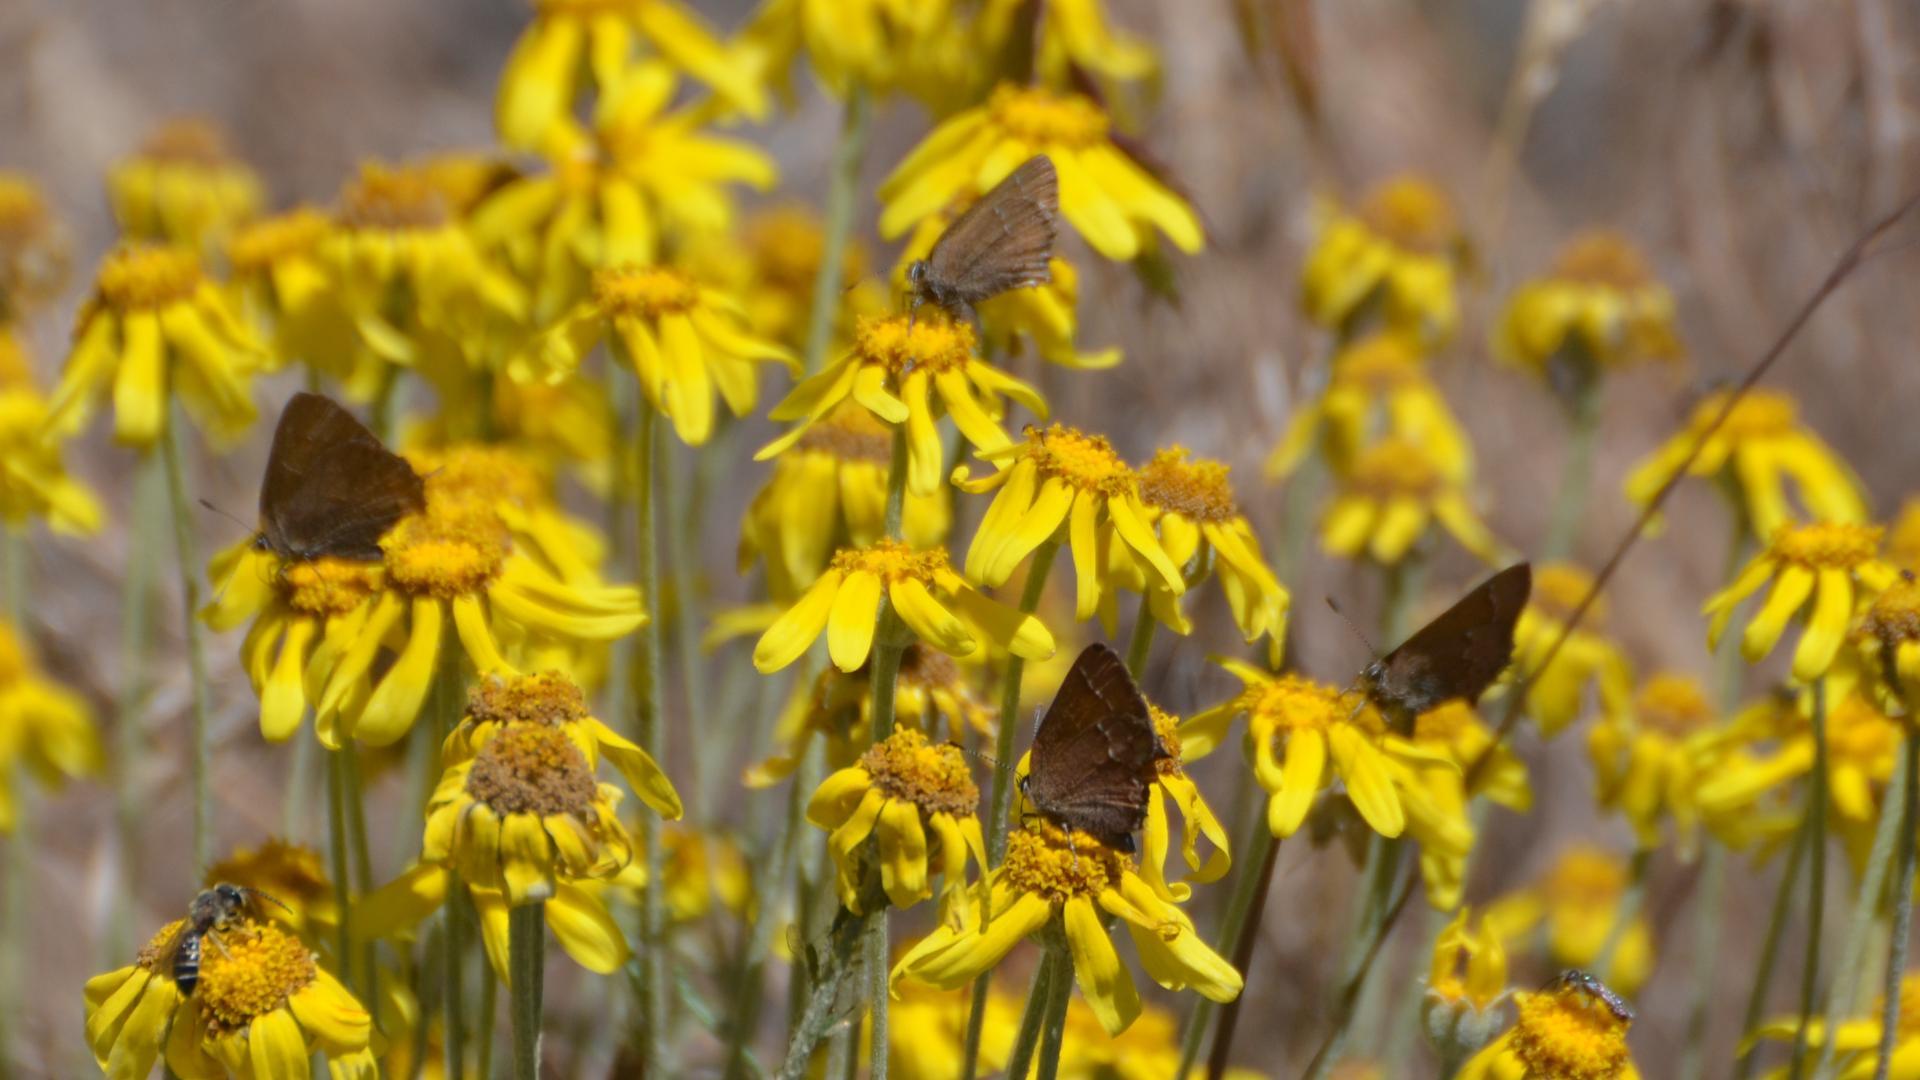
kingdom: Animalia
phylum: Arthropoda
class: Insecta
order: Lepidoptera
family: Lycaenidae
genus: Mitoura
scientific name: Mitoura gryneus
